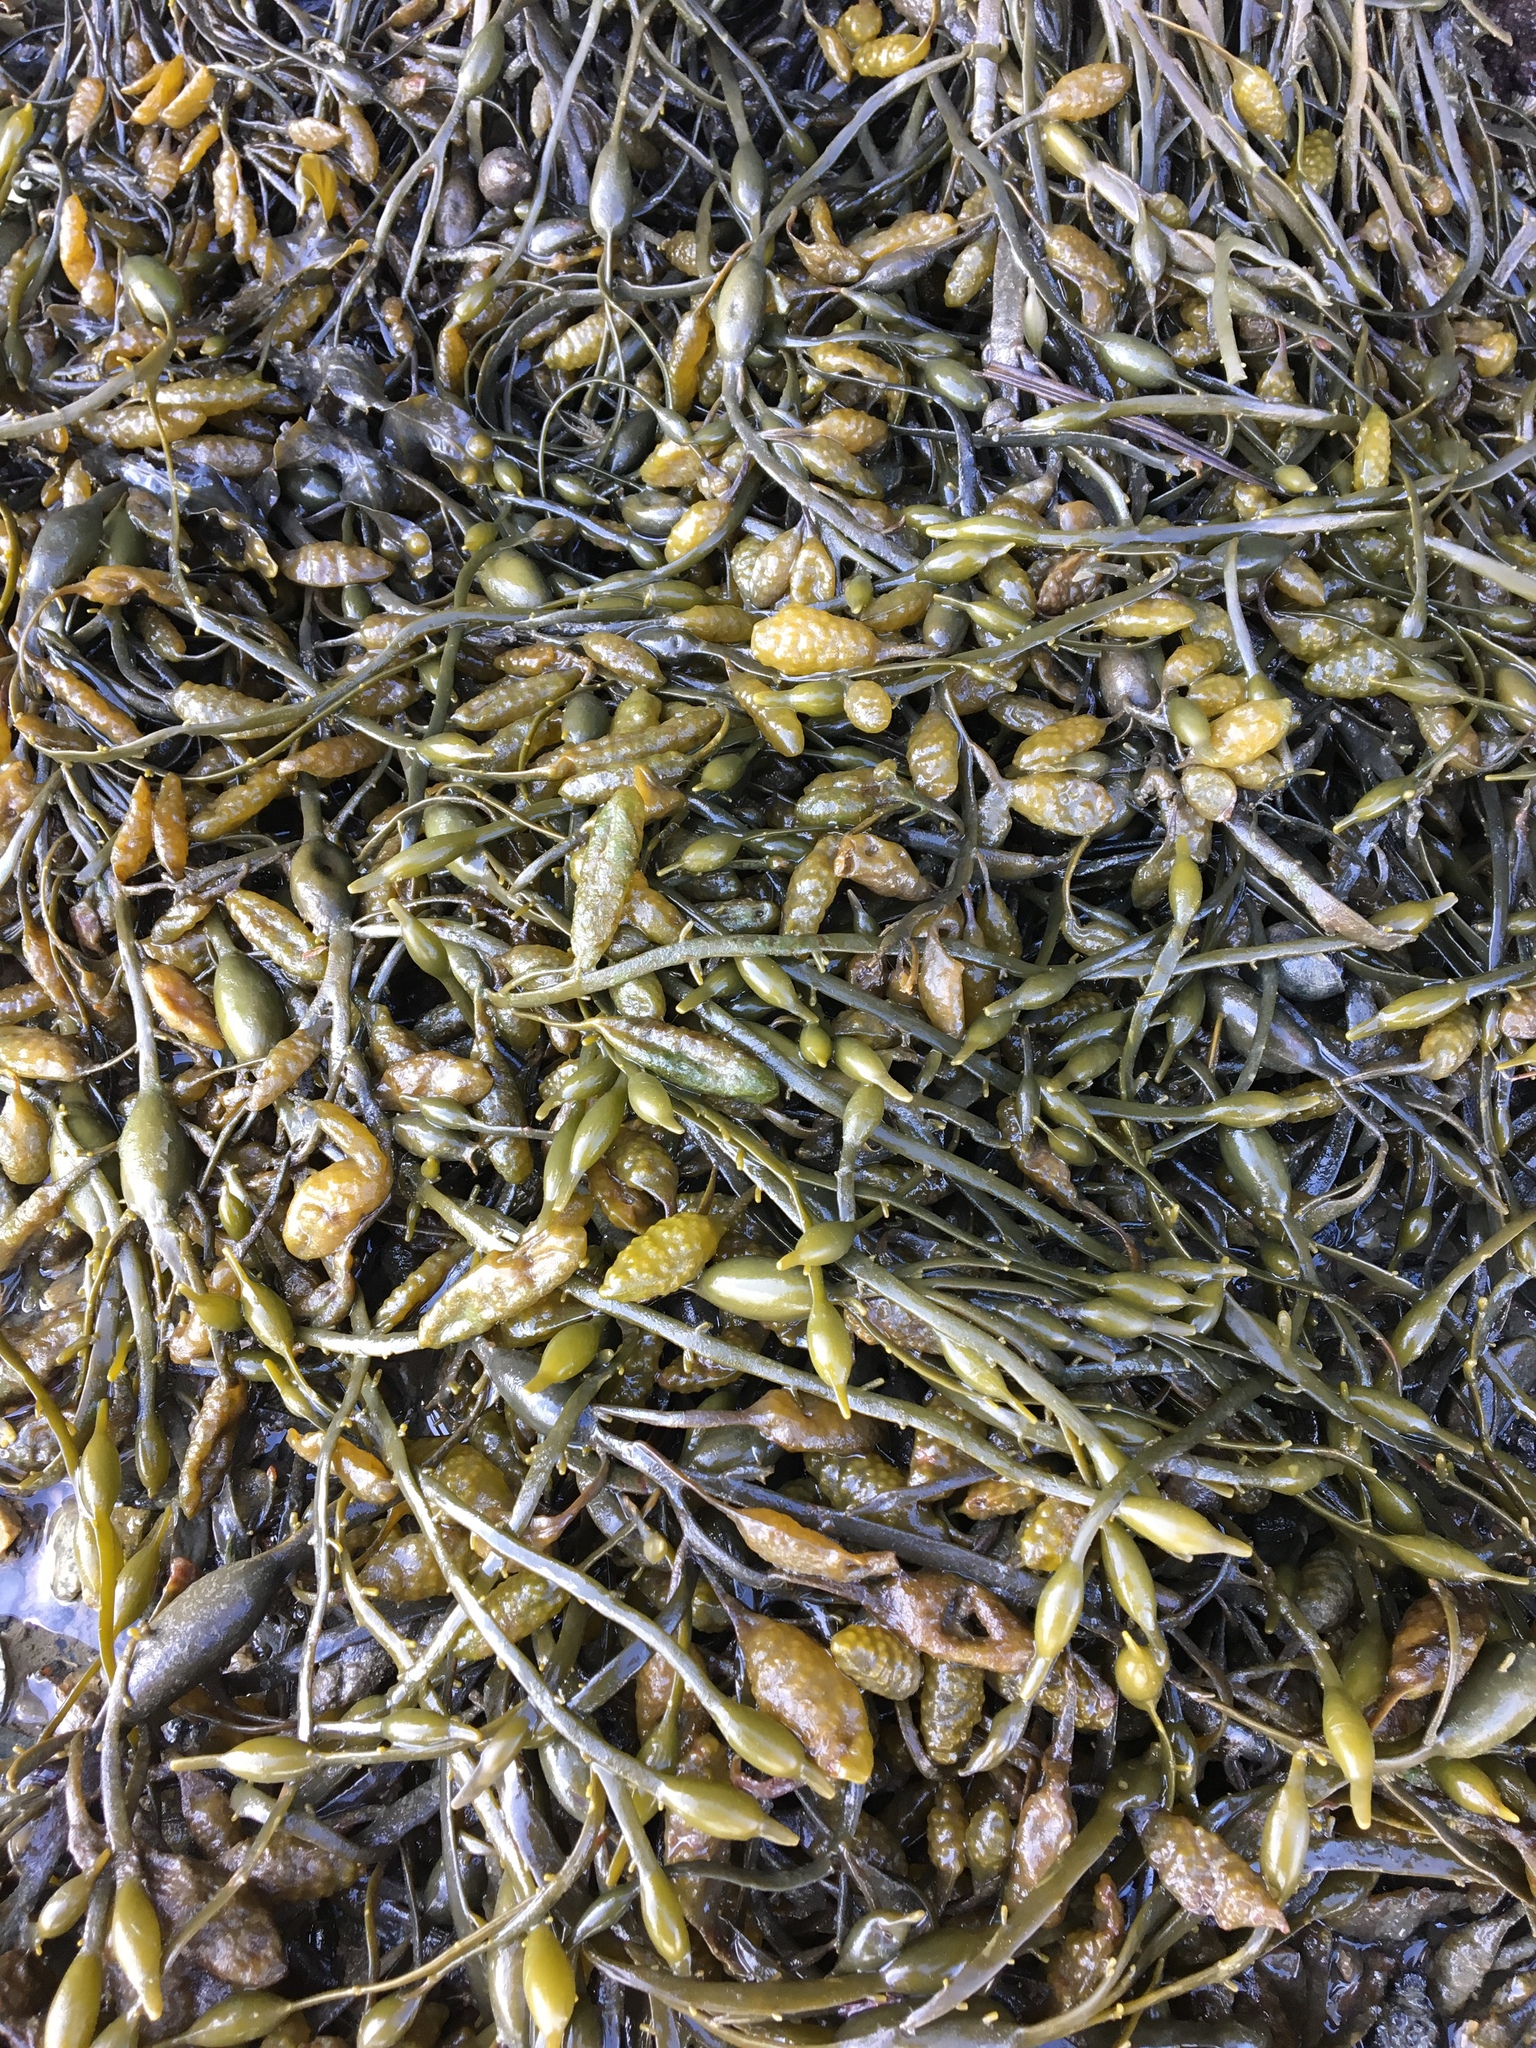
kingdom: Chromista
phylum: Ochrophyta
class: Phaeophyceae
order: Fucales
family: Fucaceae
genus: Ascophyllum
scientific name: Ascophyllum nodosum
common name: Knotted wrack
